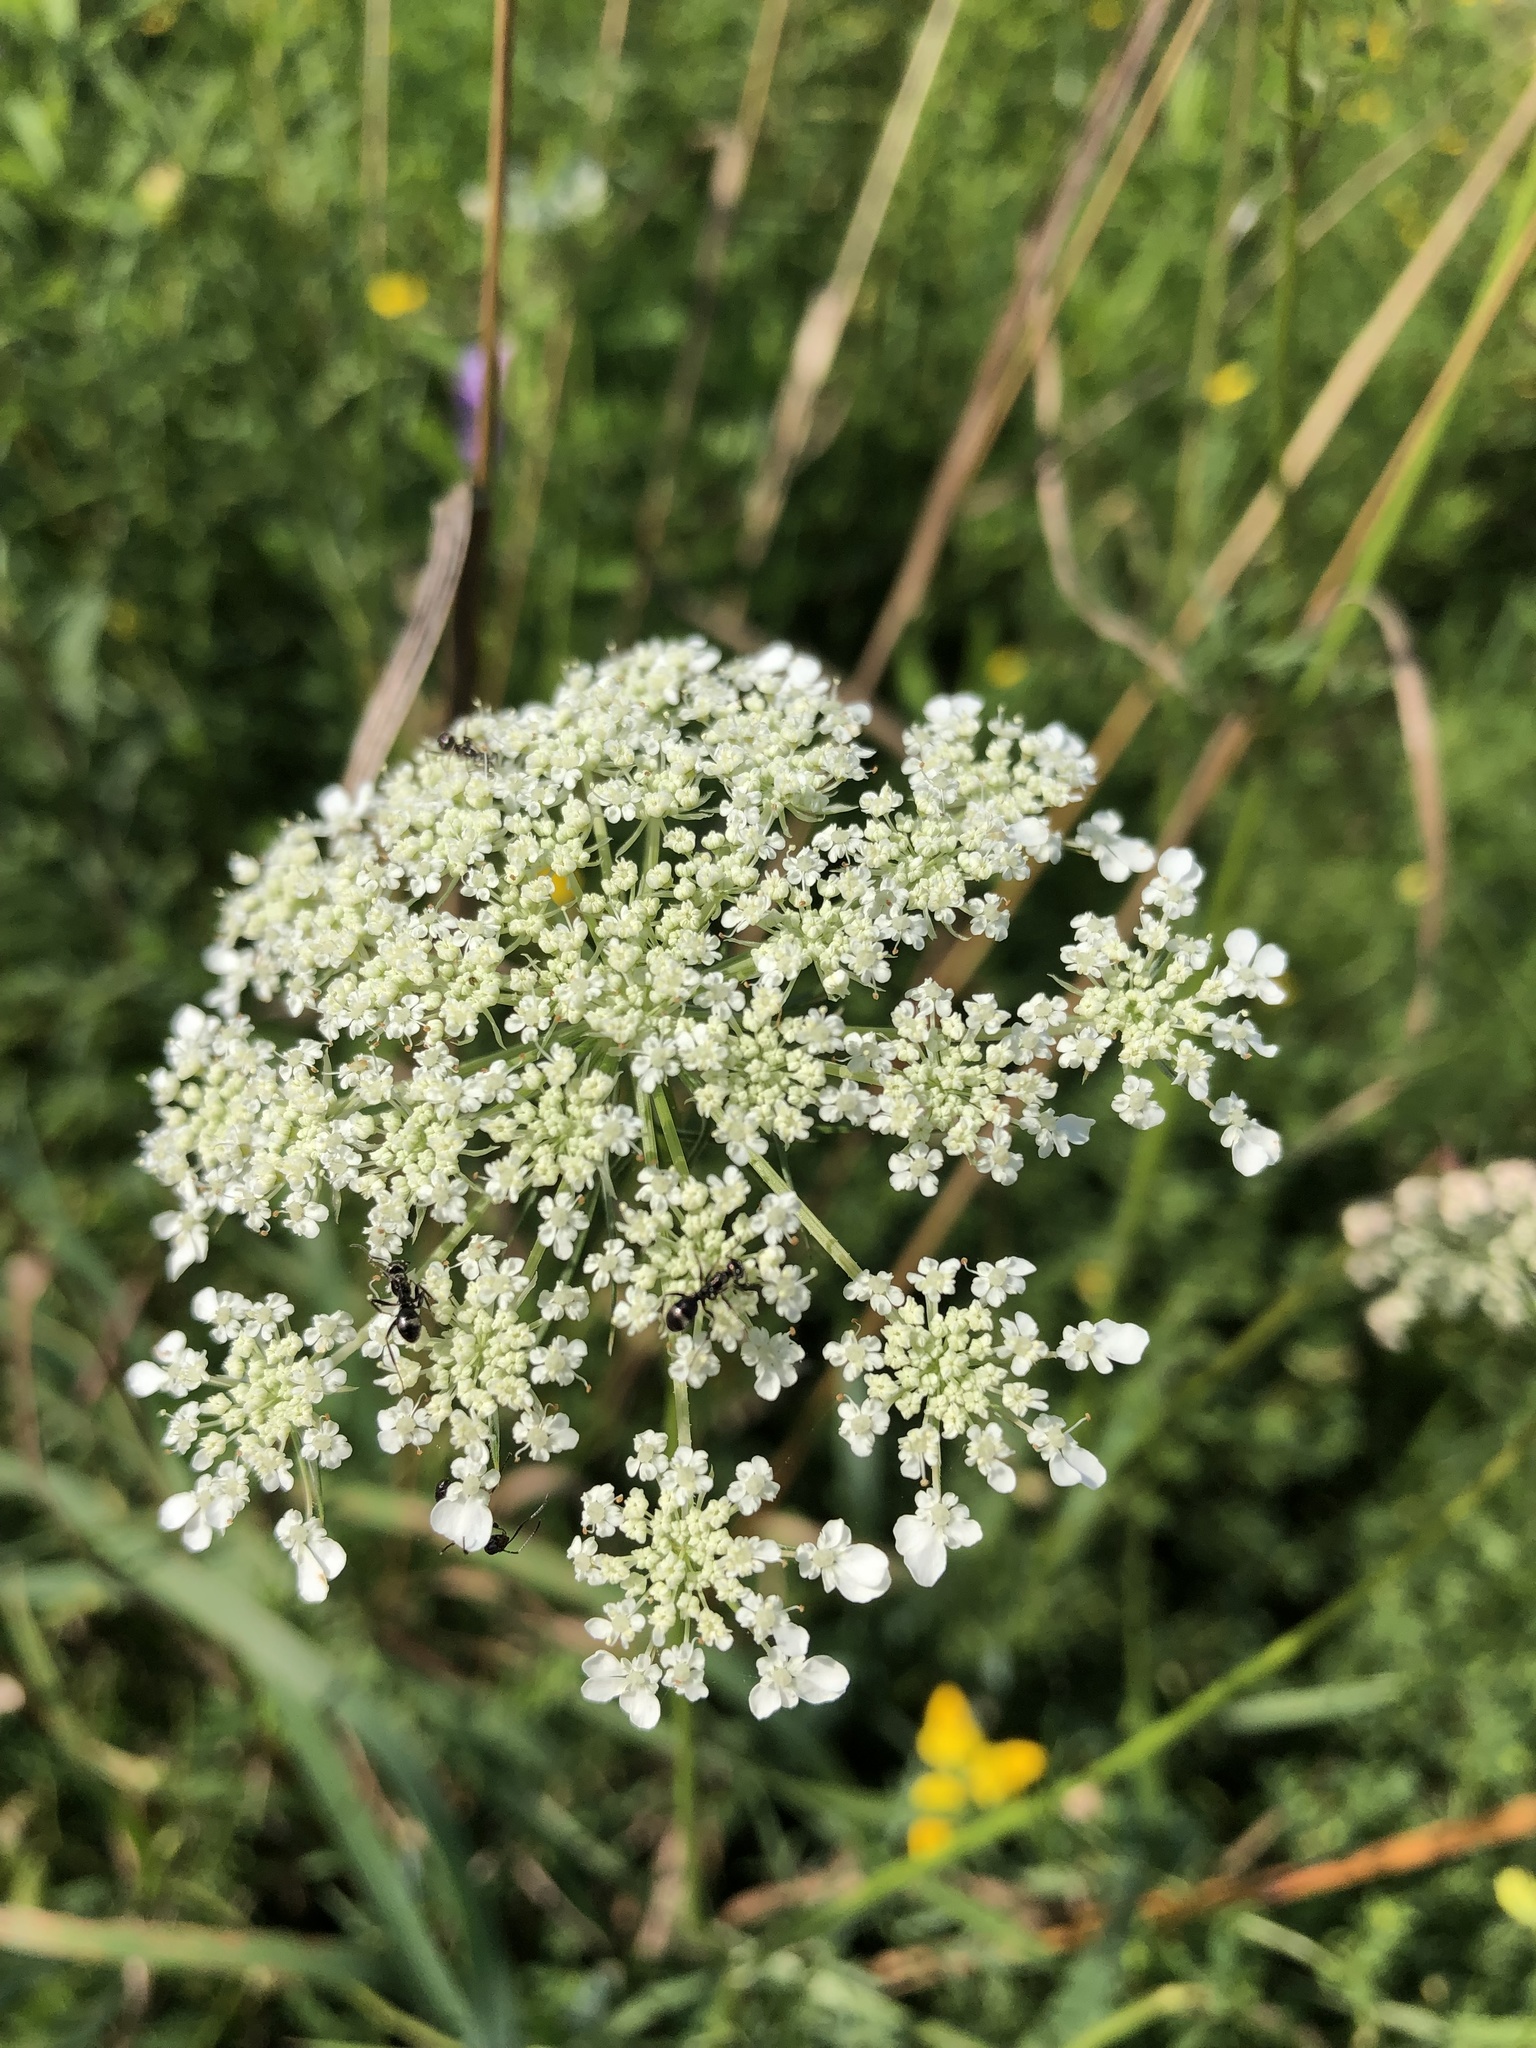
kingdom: Plantae
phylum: Tracheophyta
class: Magnoliopsida
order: Apiales
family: Apiaceae
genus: Daucus
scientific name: Daucus carota
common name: Wild carrot
